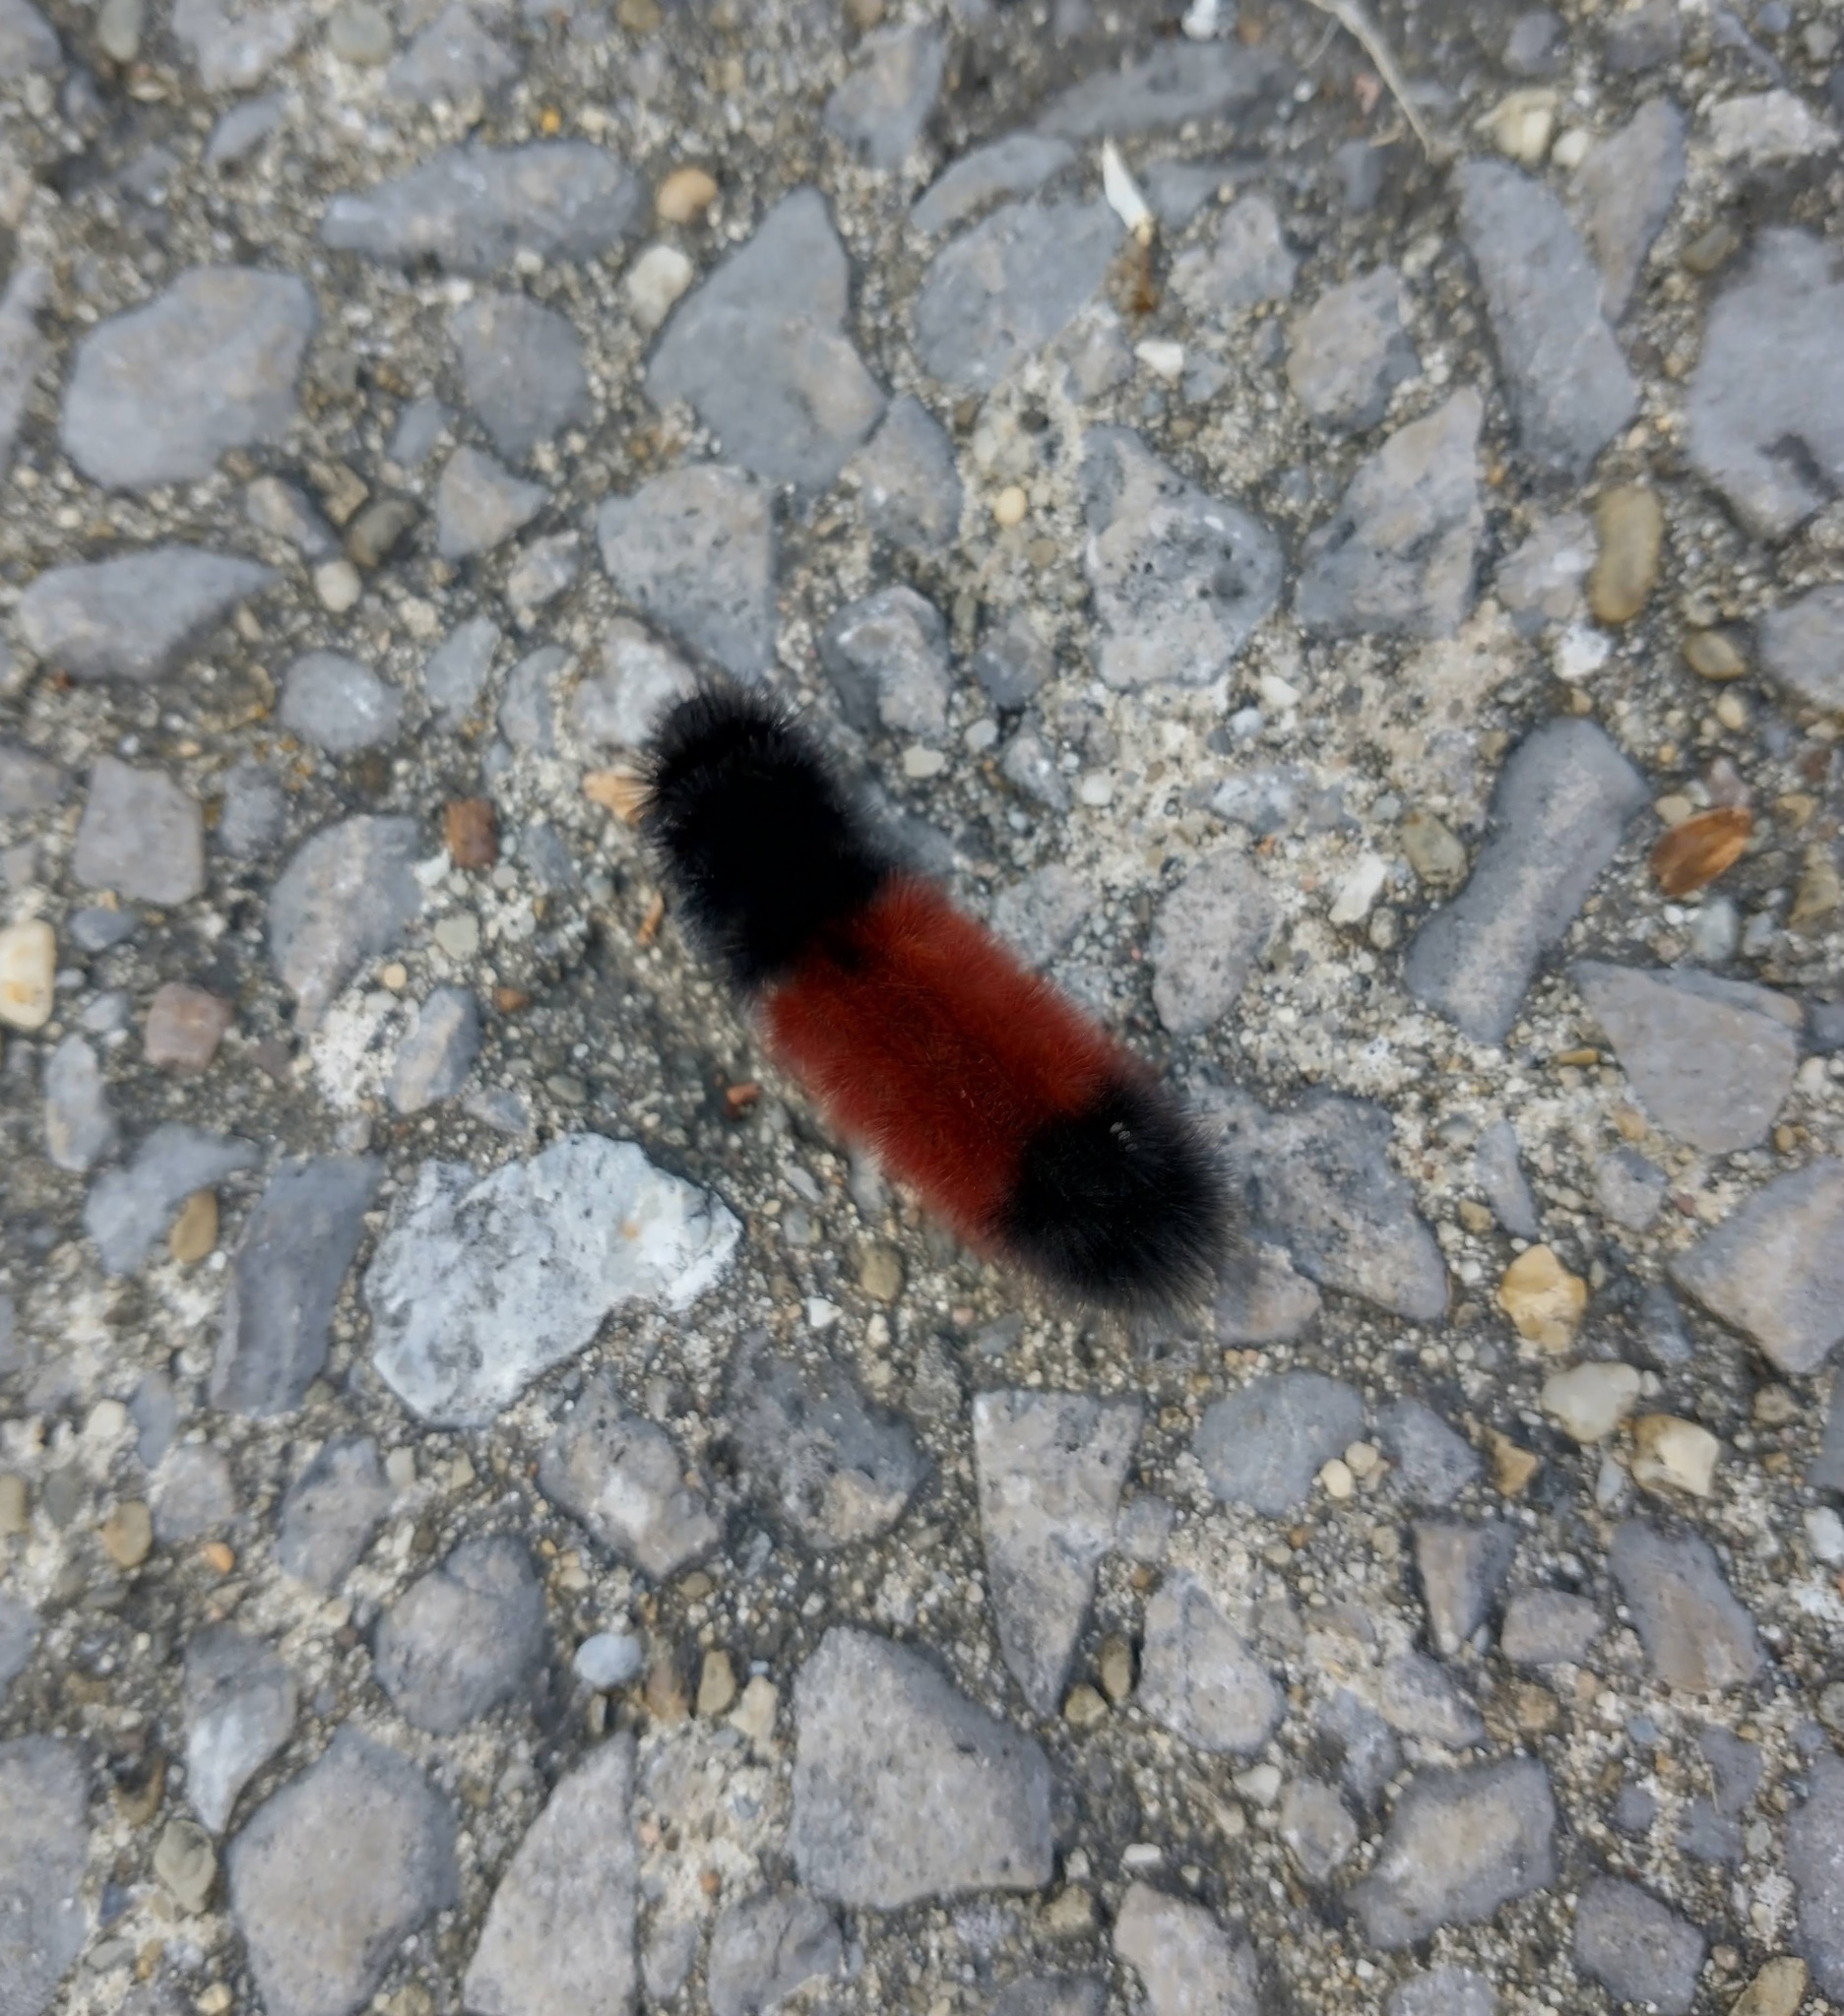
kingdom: Animalia
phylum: Arthropoda
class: Insecta
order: Lepidoptera
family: Erebidae
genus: Pyrrharctia
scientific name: Pyrrharctia isabella
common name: Isabella tiger moth
